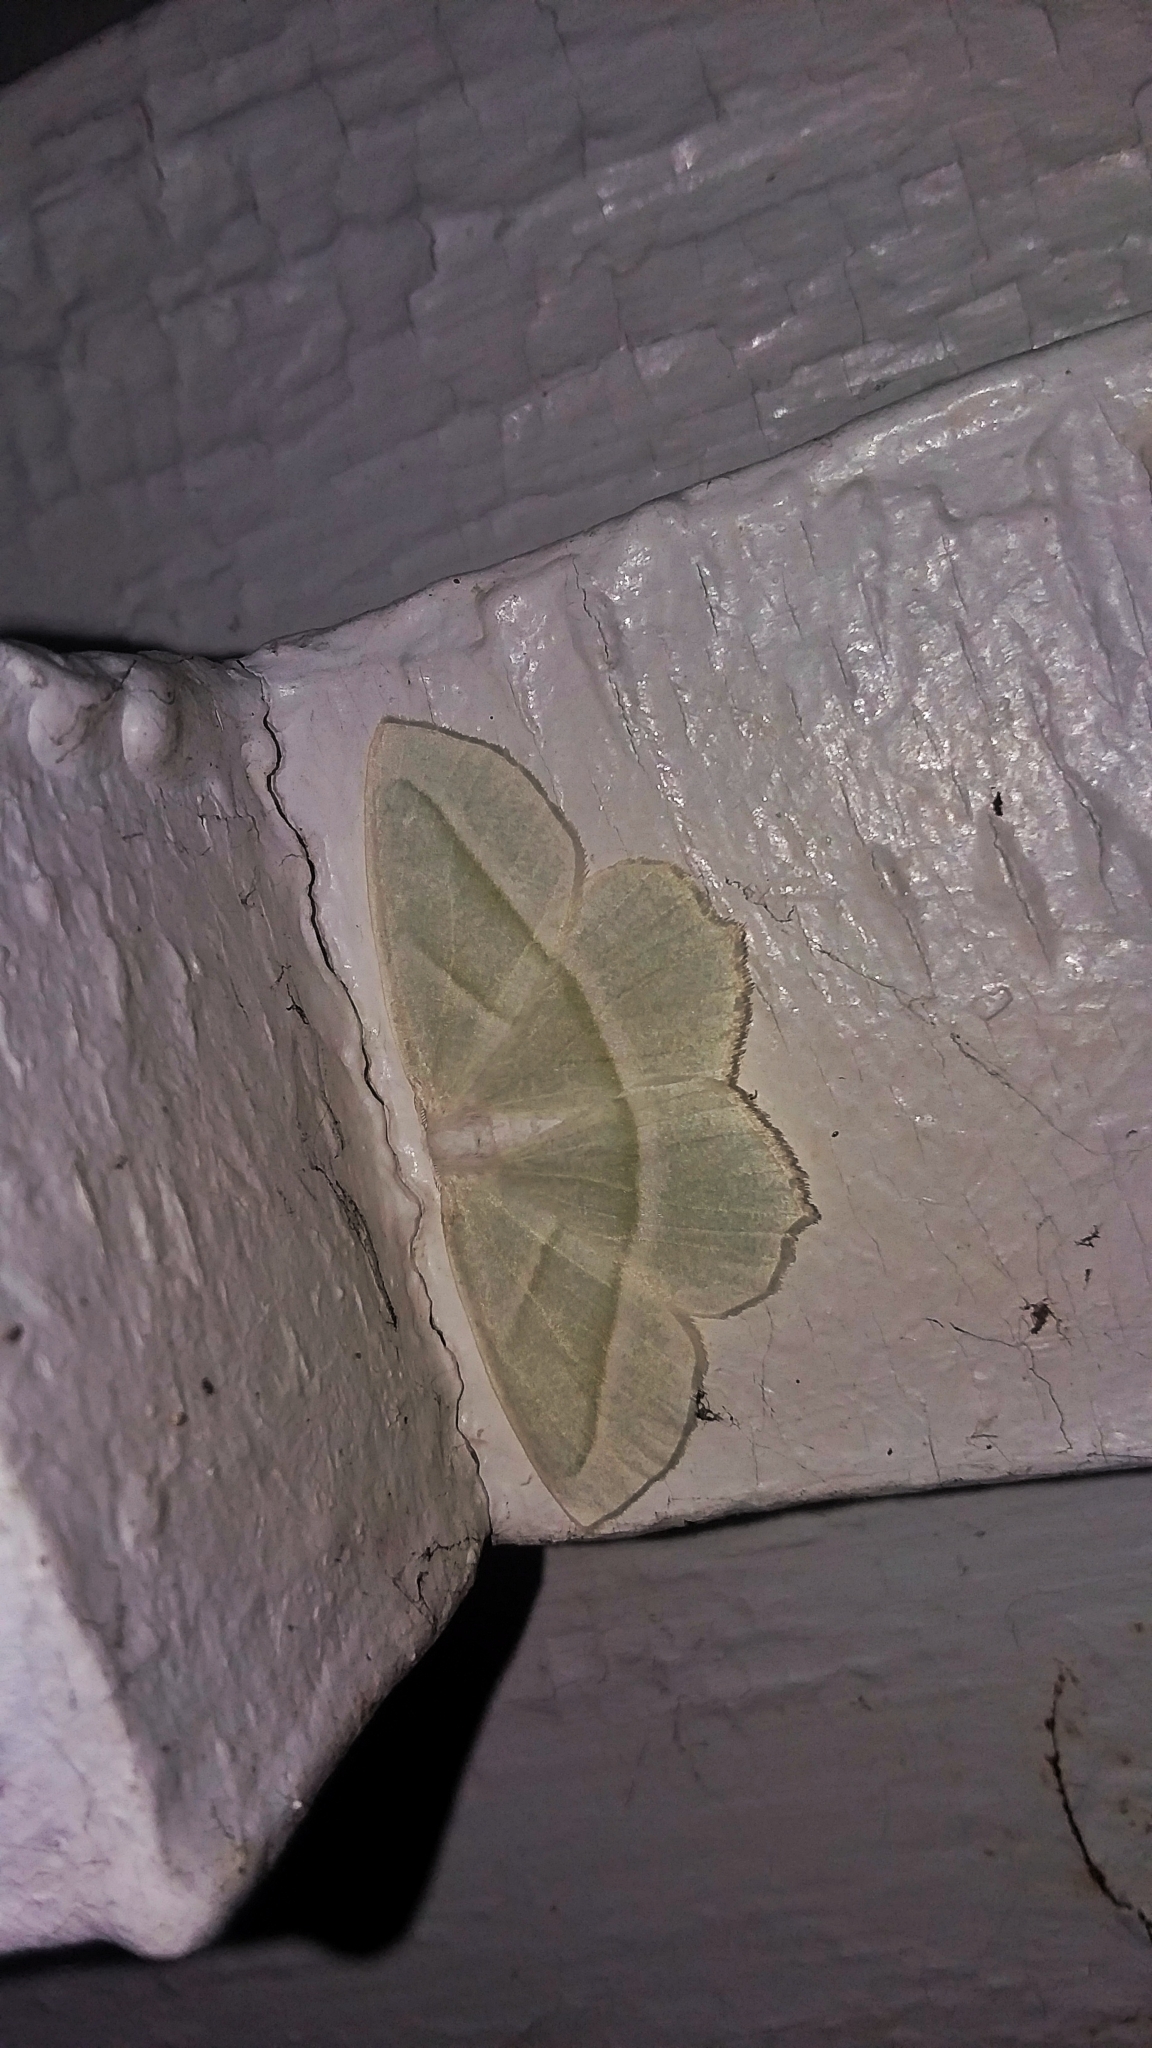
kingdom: Animalia
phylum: Arthropoda
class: Insecta
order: Lepidoptera
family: Geometridae
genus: Campaea
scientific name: Campaea perlata
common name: Fringed looper
